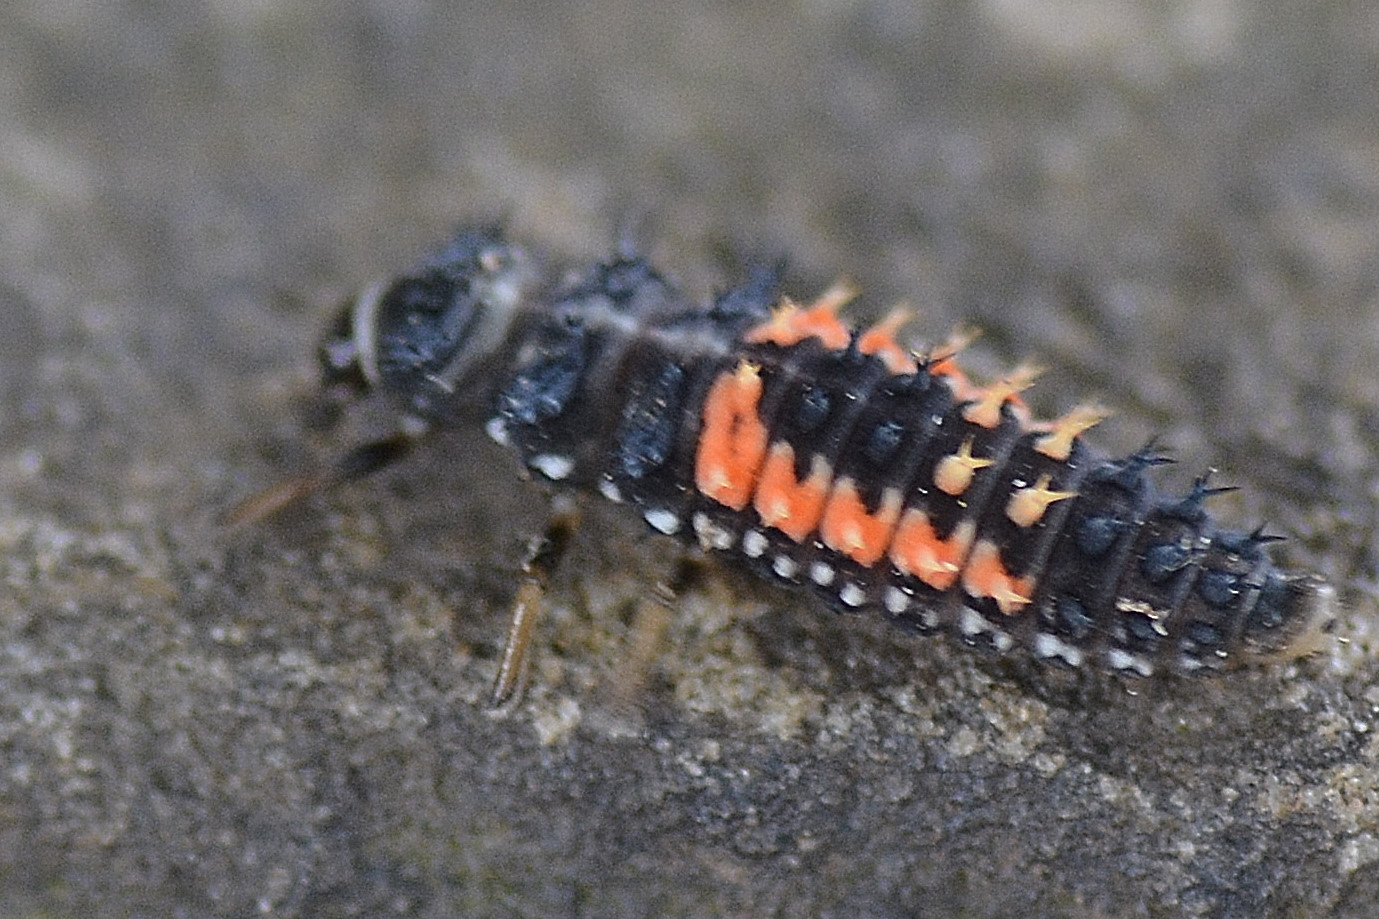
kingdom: Animalia
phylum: Arthropoda
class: Insecta
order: Coleoptera
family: Coccinellidae
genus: Harmonia
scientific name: Harmonia axyridis
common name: Harlequin ladybird
